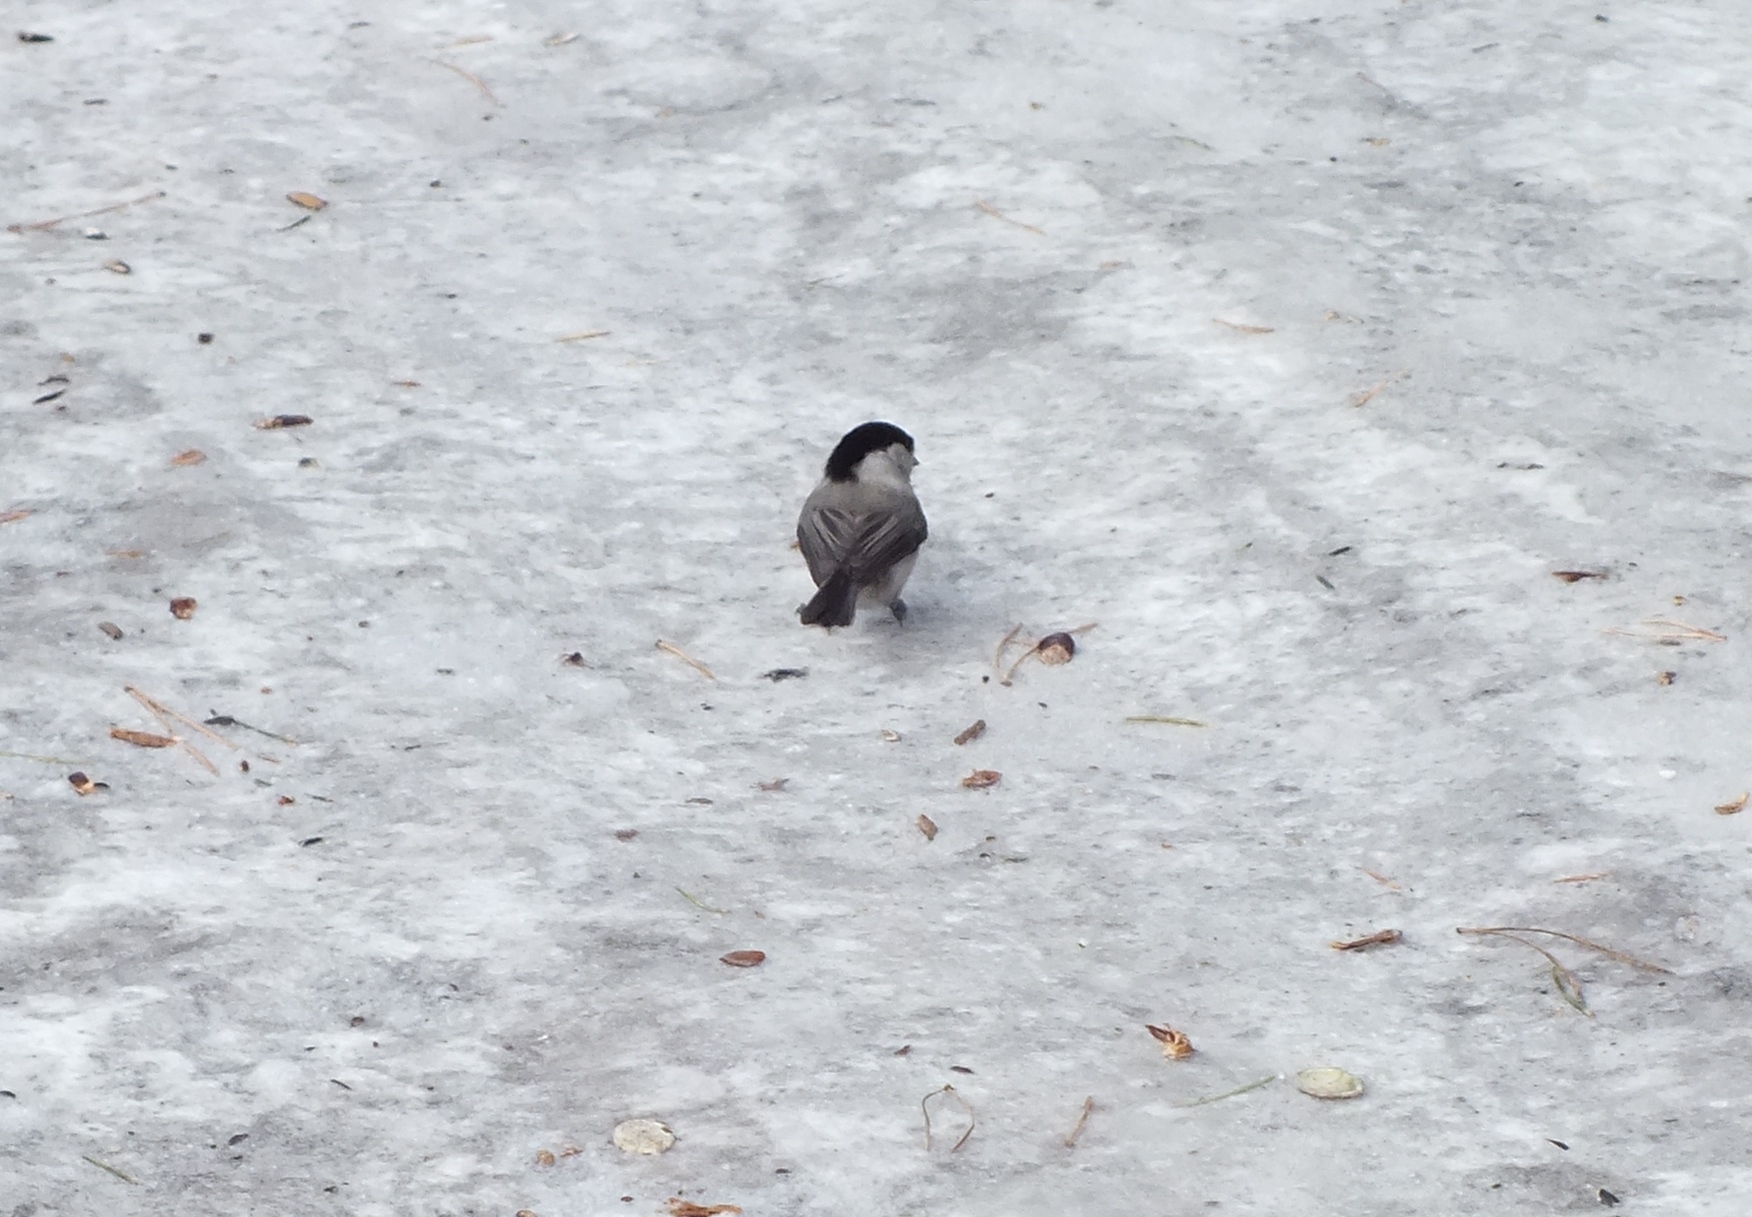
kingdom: Animalia
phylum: Chordata
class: Aves
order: Passeriformes
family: Paridae
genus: Poecile
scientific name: Poecile montanus
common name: Willow tit
